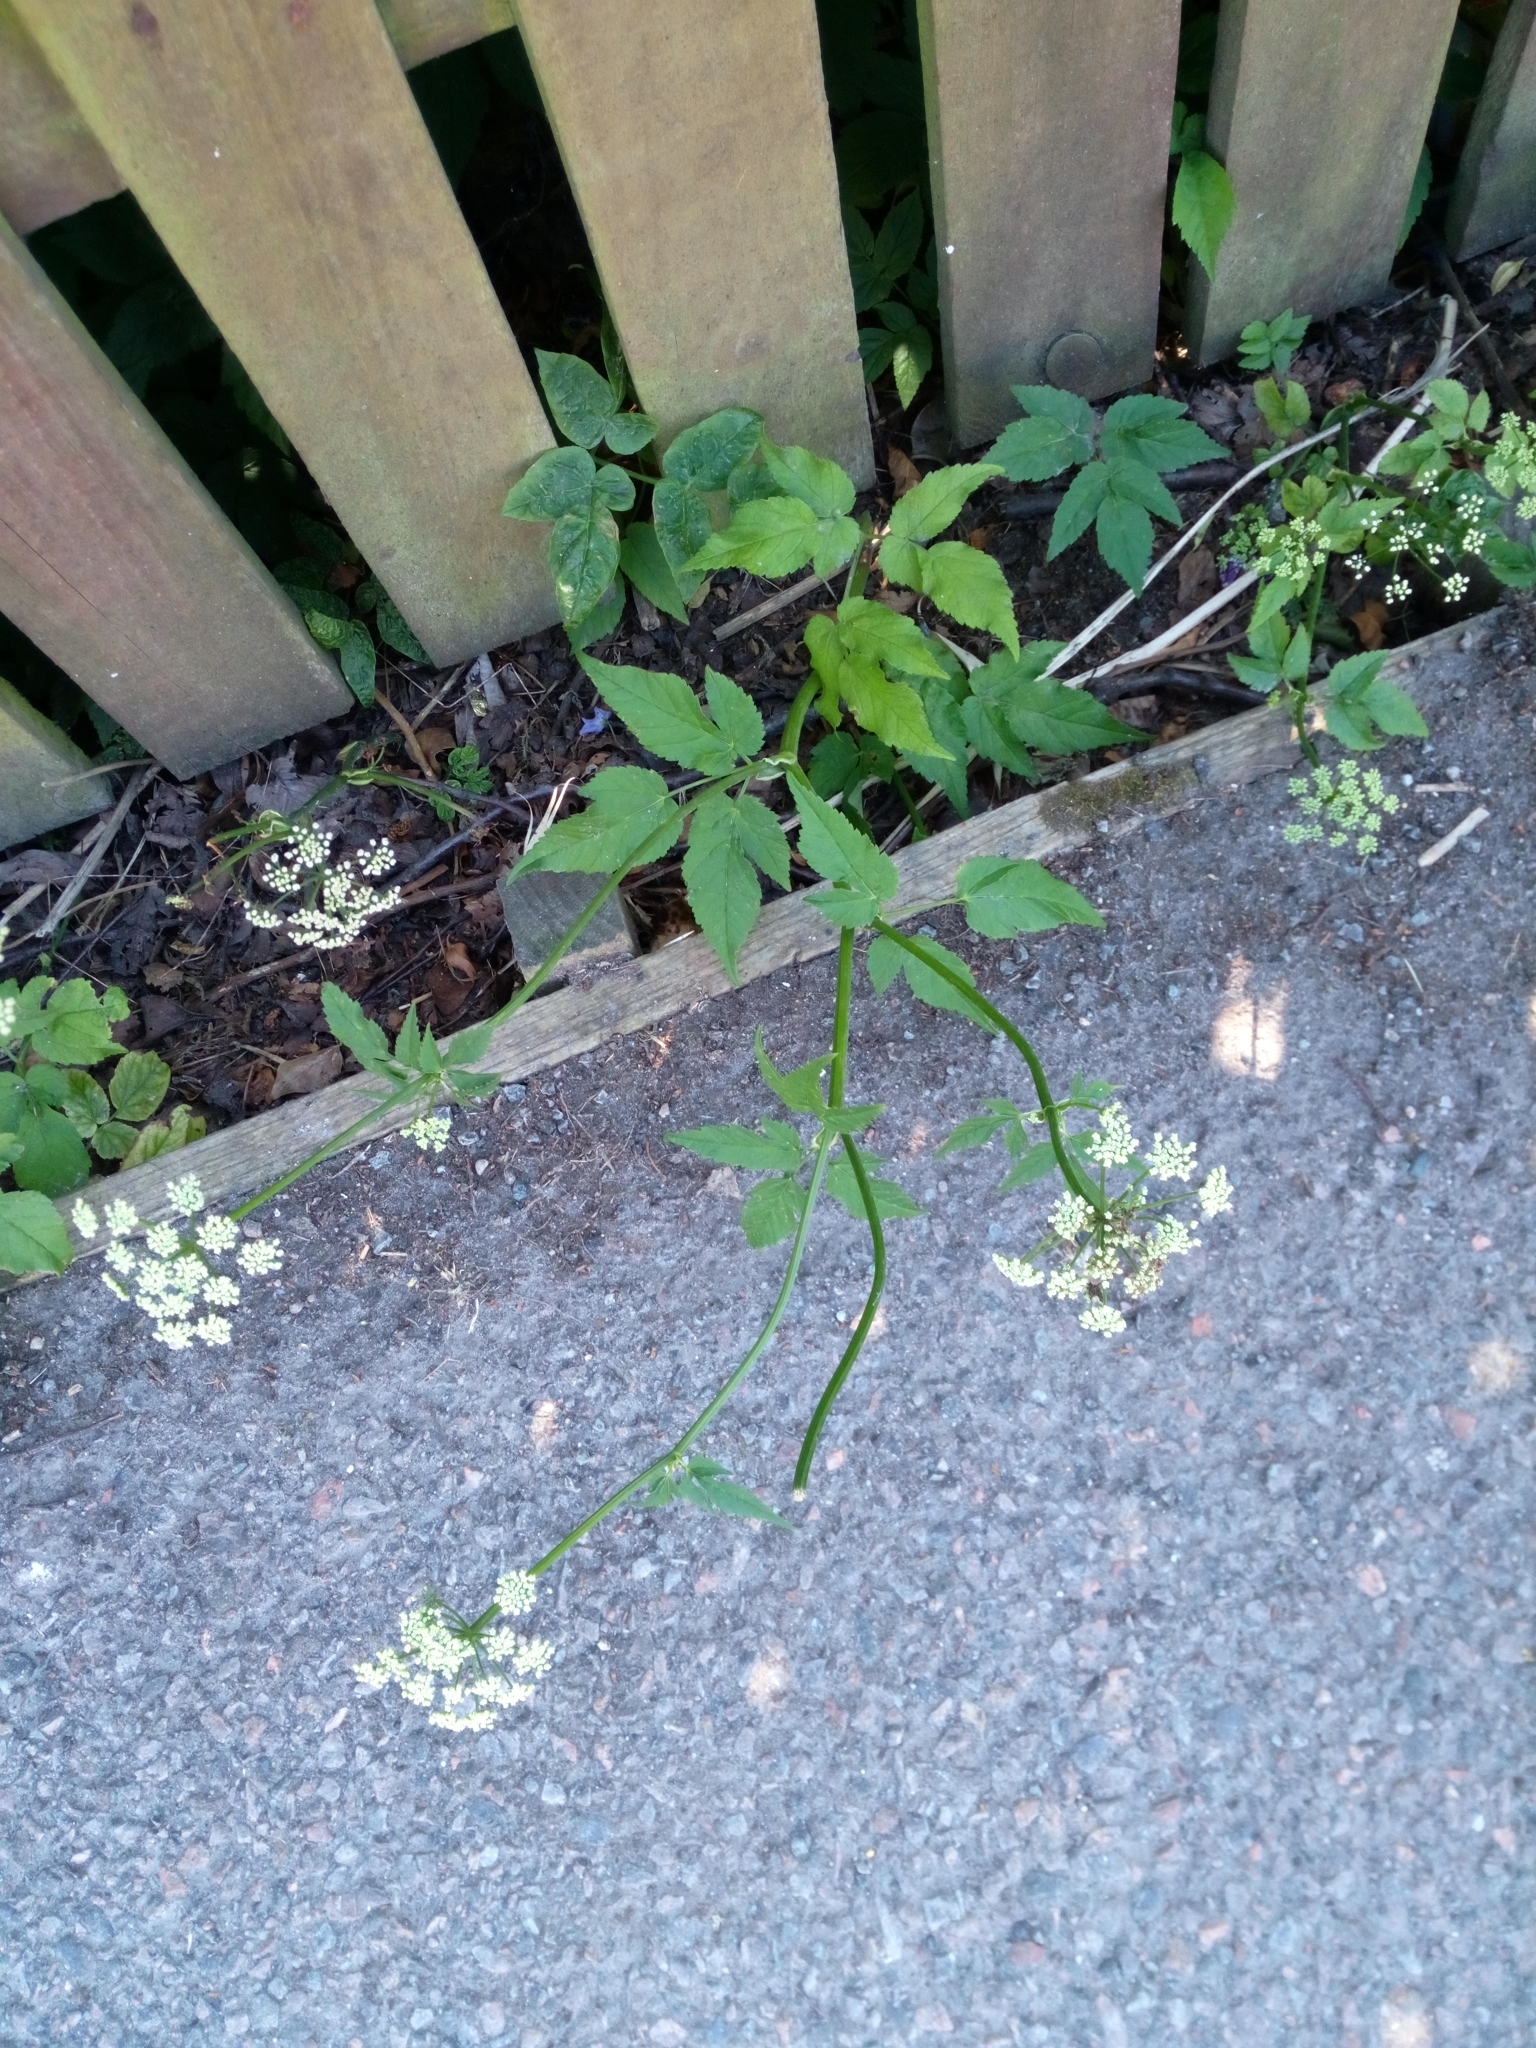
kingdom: Plantae
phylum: Tracheophyta
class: Magnoliopsida
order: Apiales
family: Apiaceae
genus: Aegopodium
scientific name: Aegopodium podagraria
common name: Ground-elder
